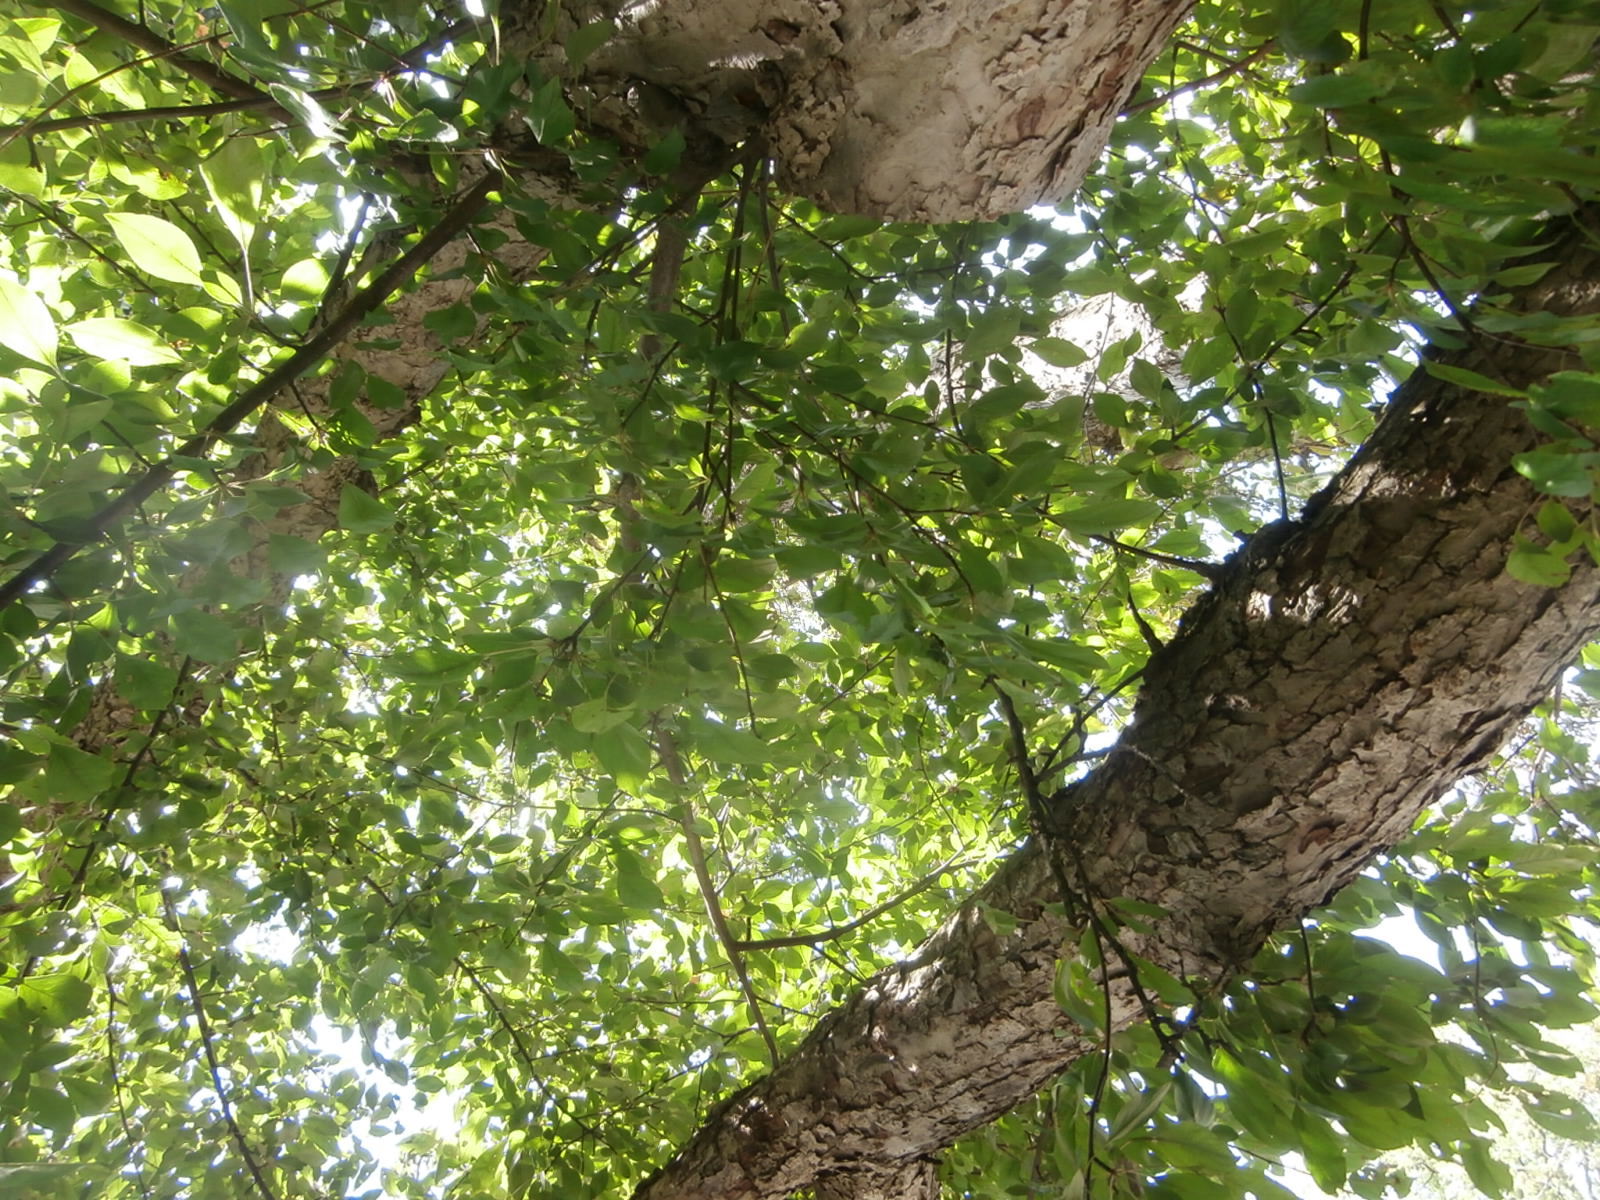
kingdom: Plantae
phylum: Tracheophyta
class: Magnoliopsida
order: Rosales
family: Rosaceae
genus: Prunus
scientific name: Prunus serotina
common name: Black cherry
